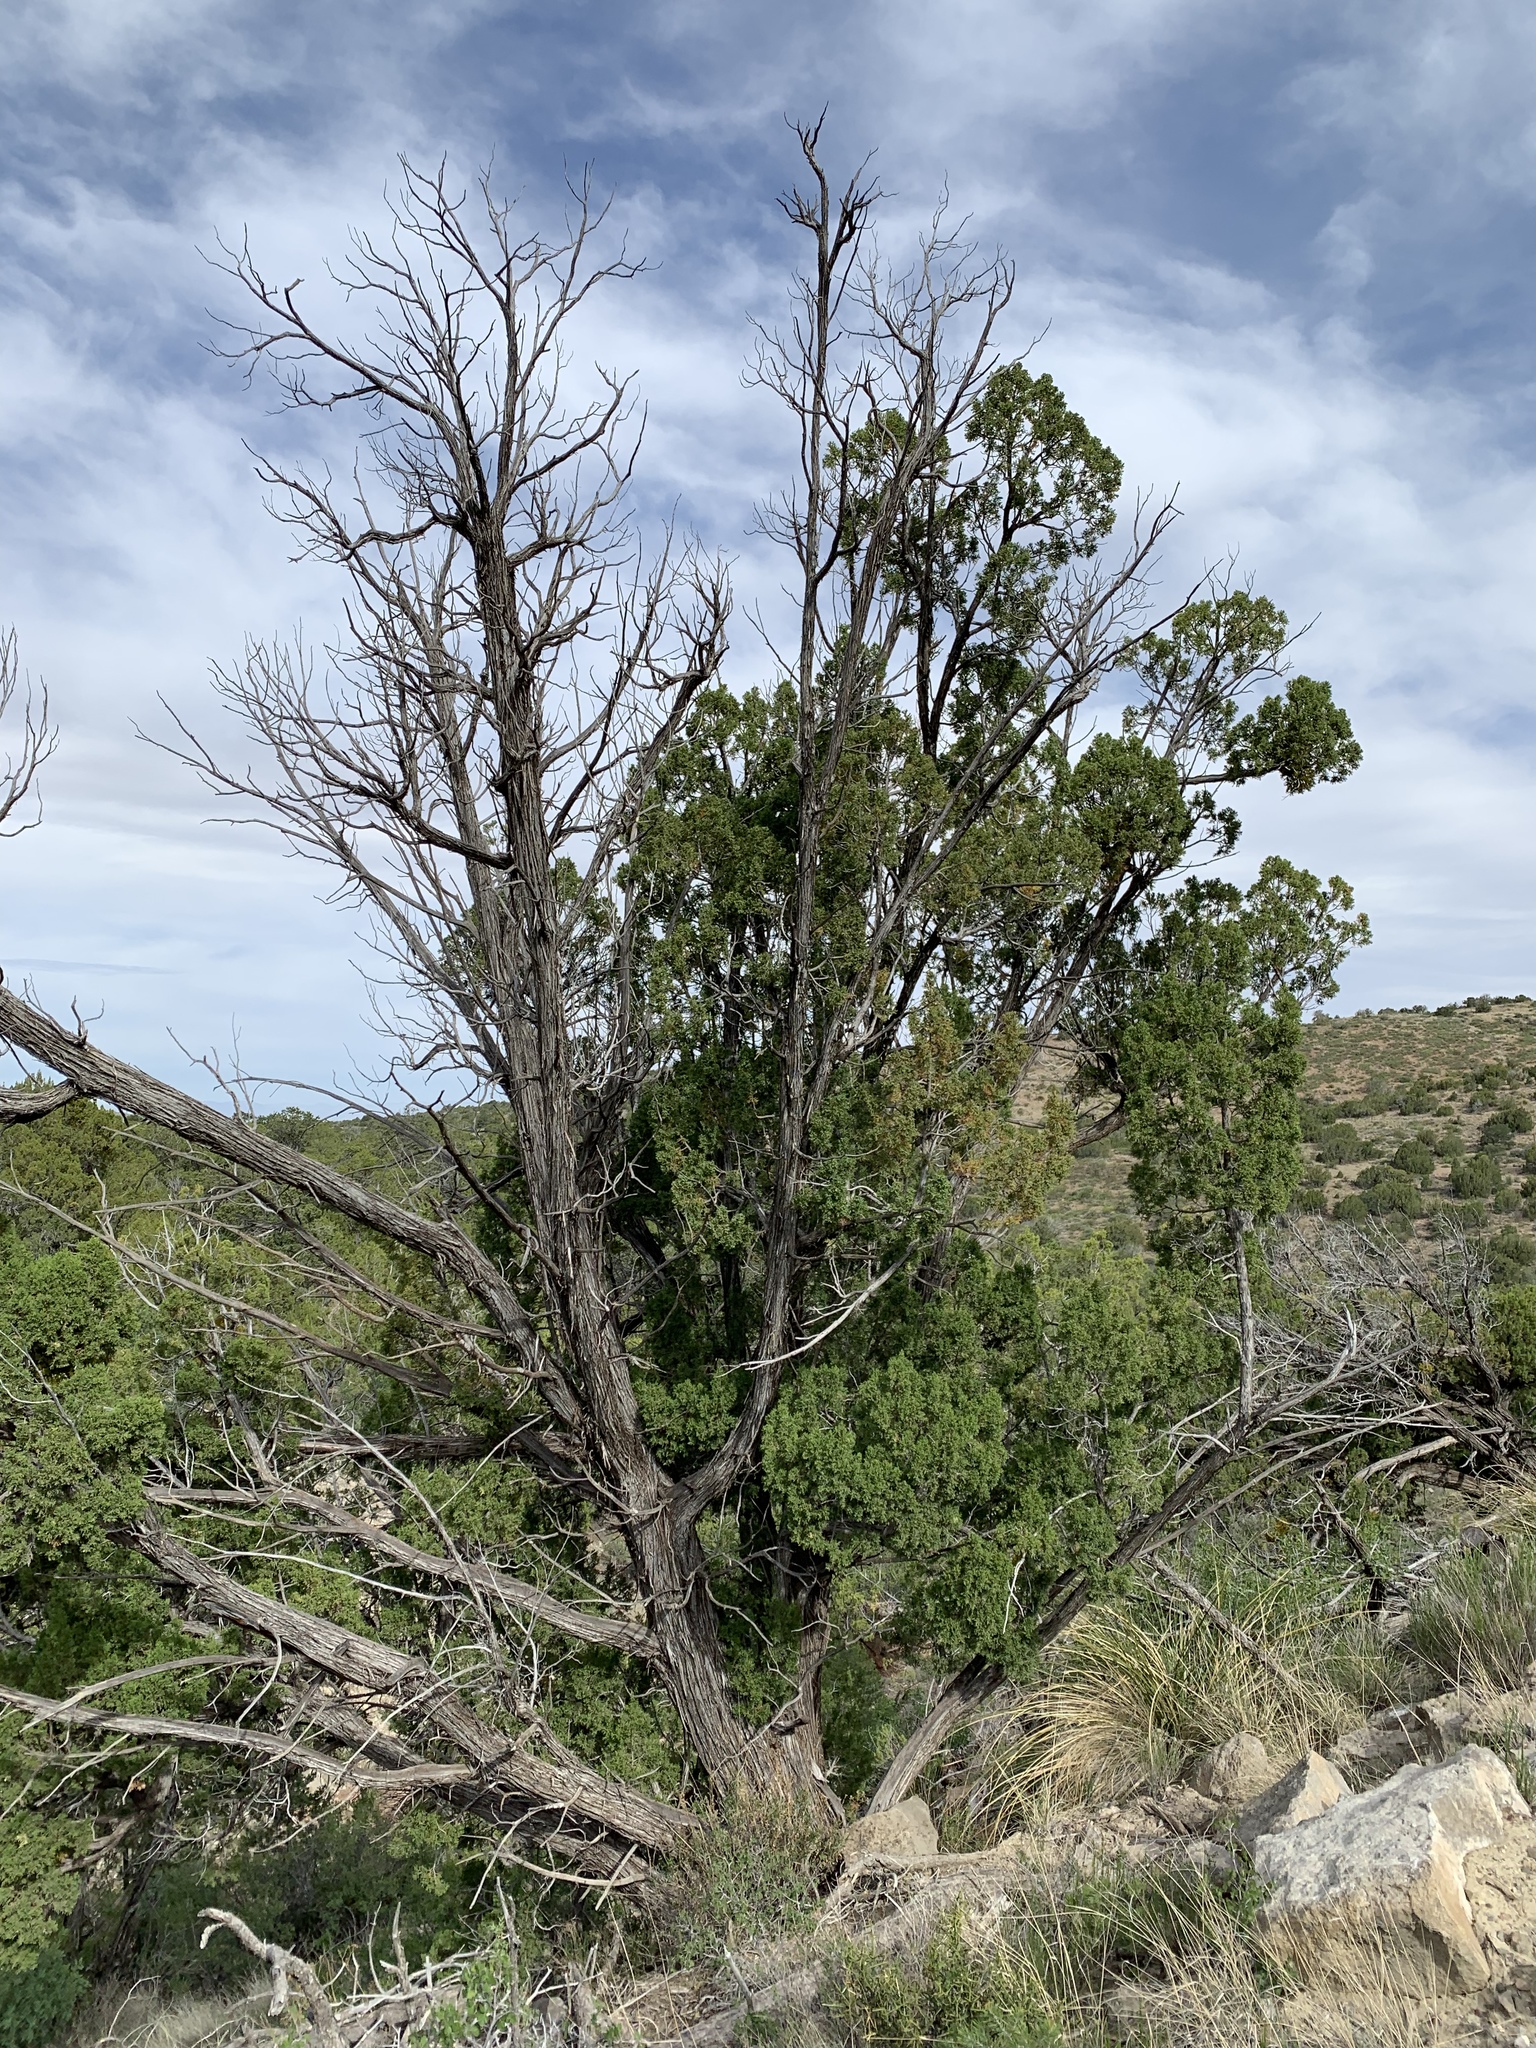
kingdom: Plantae
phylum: Tracheophyta
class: Pinopsida
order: Pinales
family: Cupressaceae
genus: Juniperus
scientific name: Juniperus monosperma
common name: One-seed juniper
